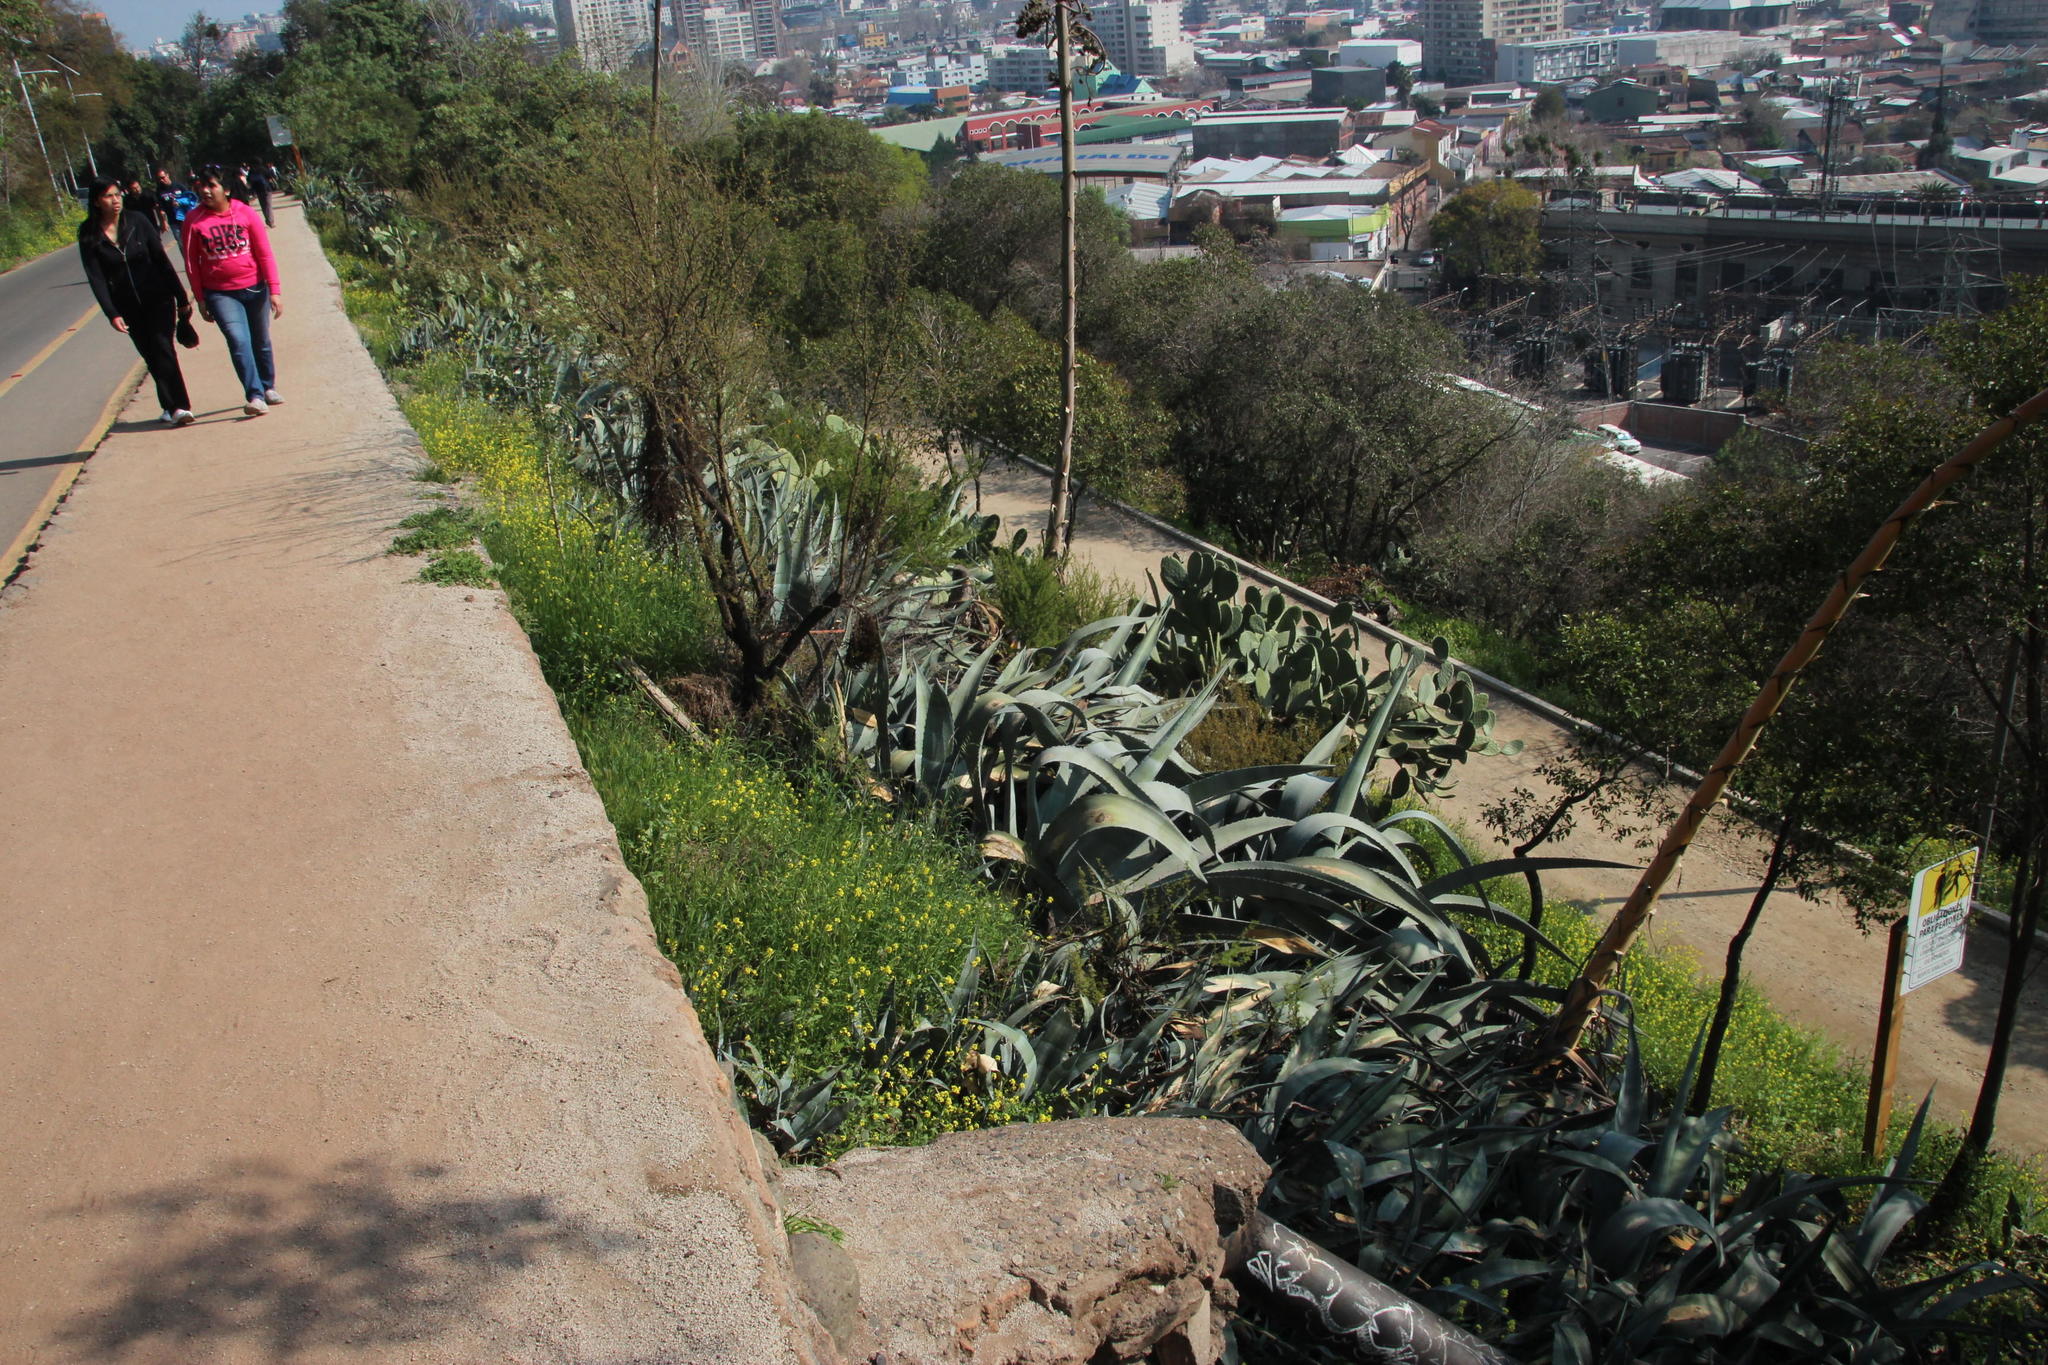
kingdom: Plantae
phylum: Tracheophyta
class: Liliopsida
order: Asparagales
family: Asparagaceae
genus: Agave
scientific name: Agave americana
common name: Centuryplant
